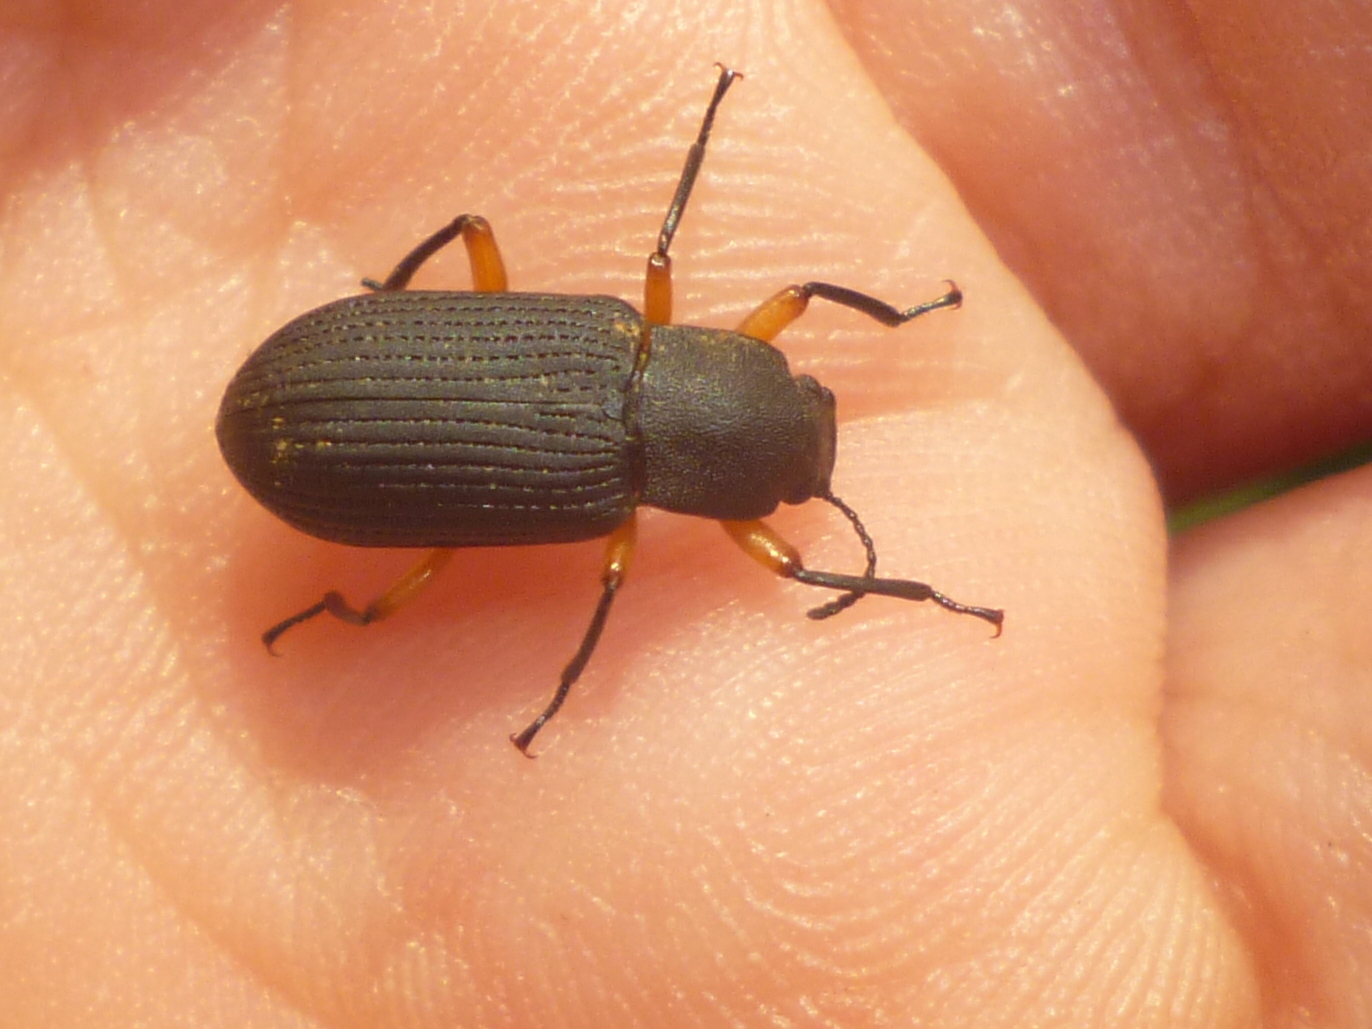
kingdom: Animalia
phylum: Arthropoda
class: Insecta
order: Coleoptera
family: Tenebrionidae
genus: Haplandrus
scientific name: Haplandrus fulvipes
